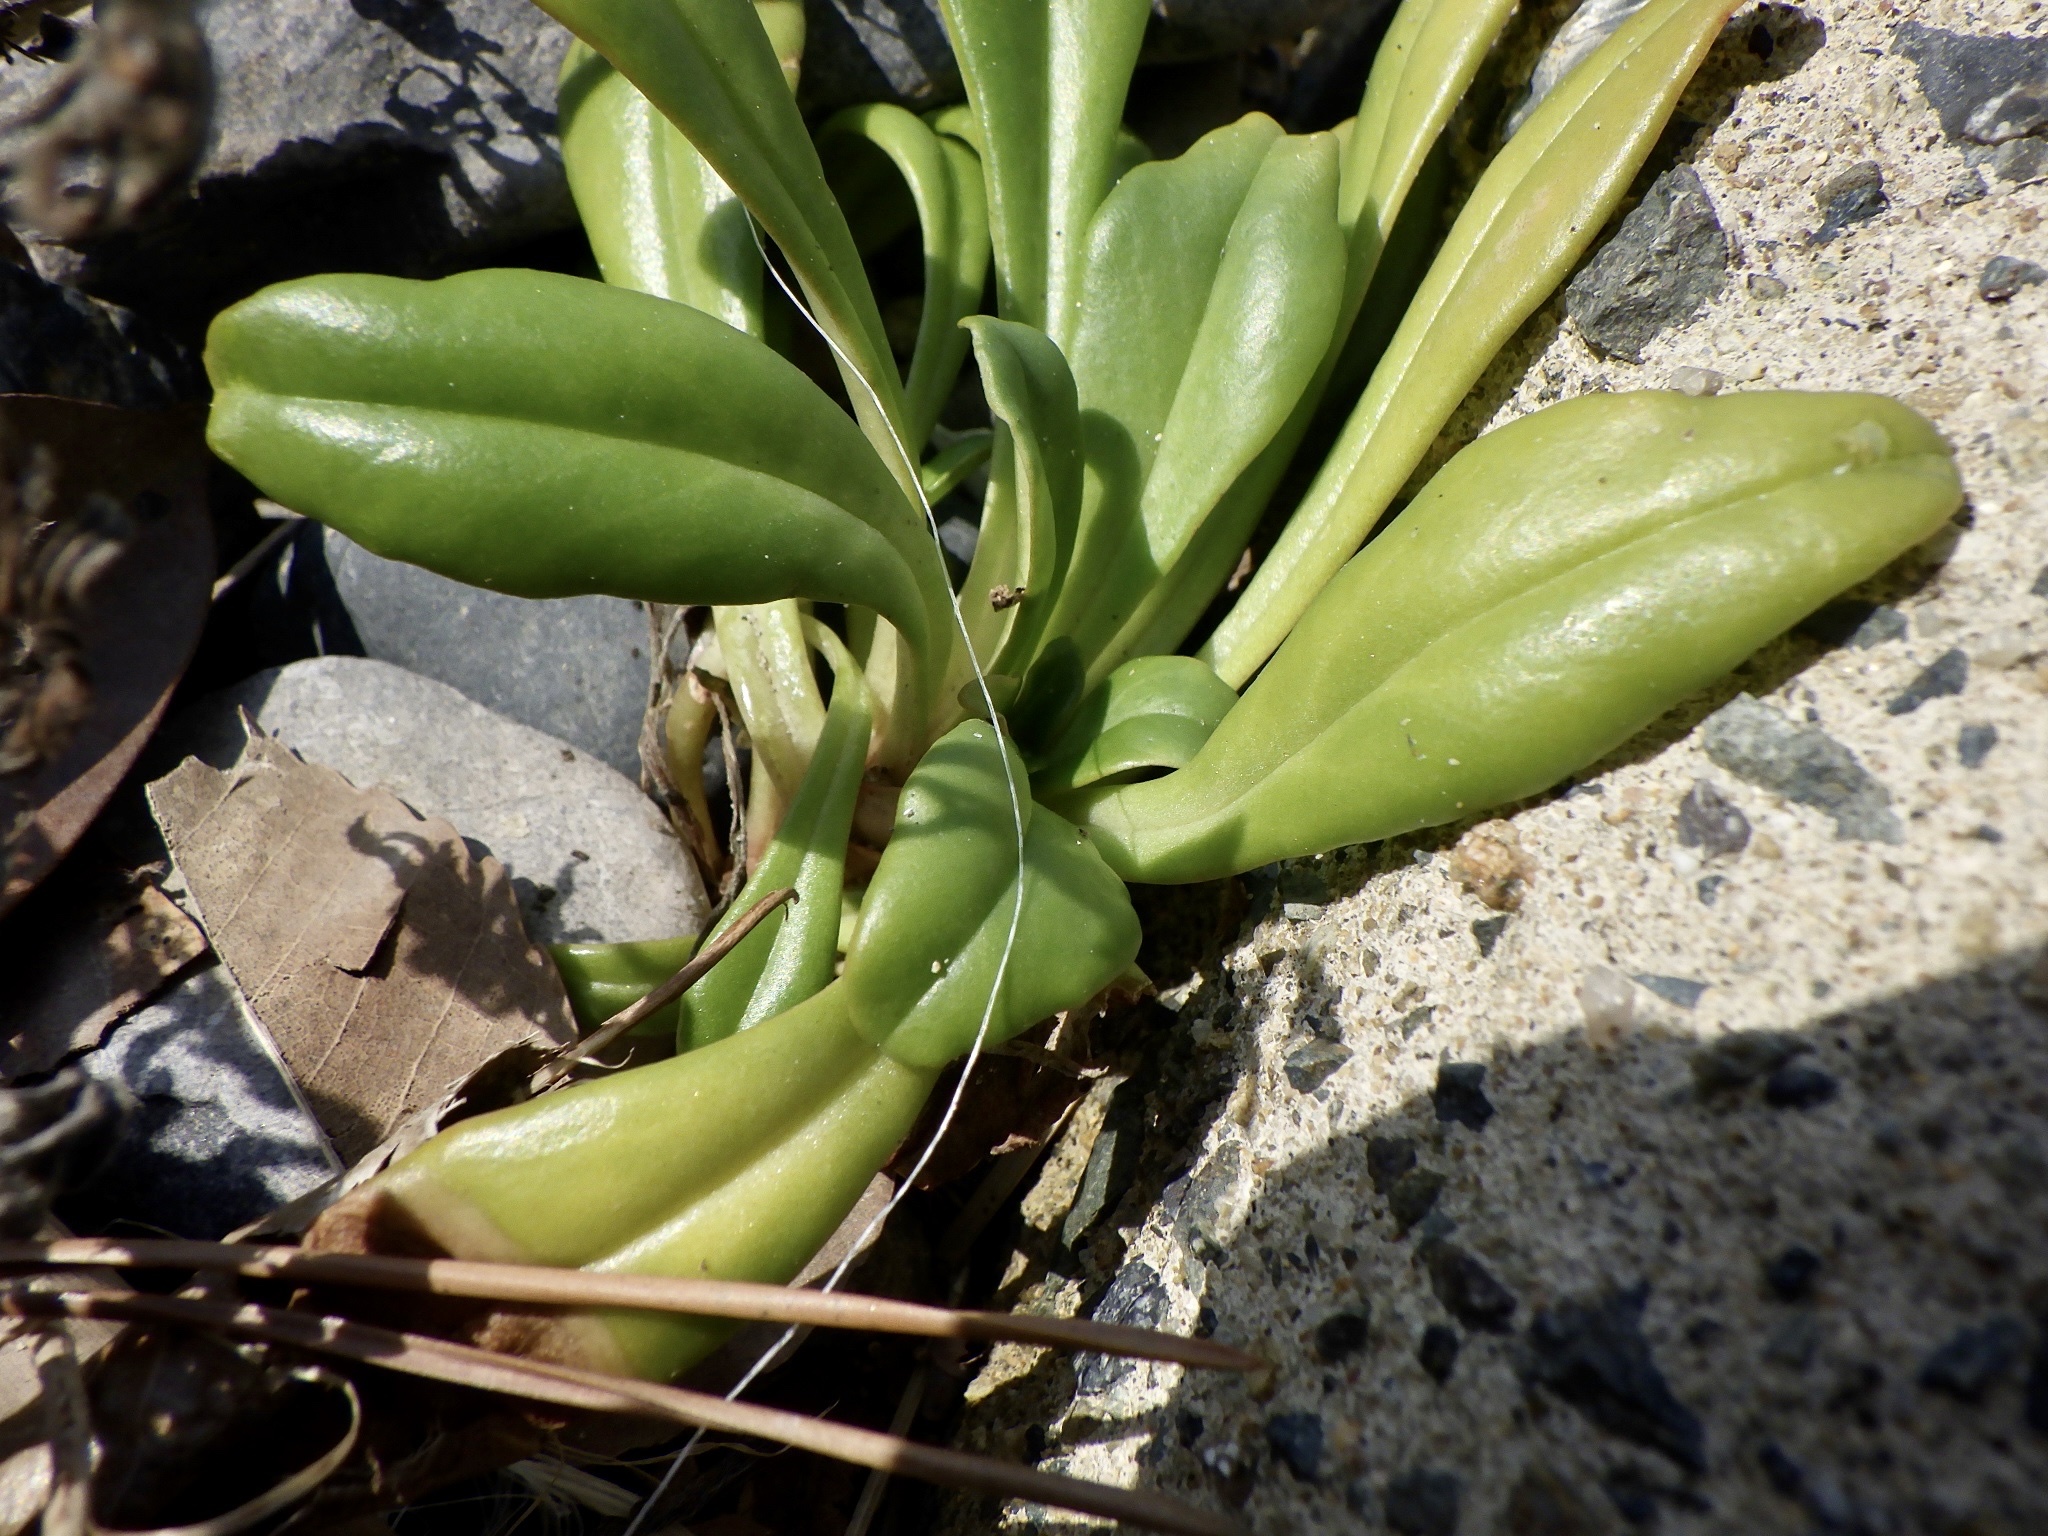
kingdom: Plantae
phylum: Tracheophyta
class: Magnoliopsida
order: Ericales
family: Primulaceae
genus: Lysimachia
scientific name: Lysimachia mauritiana
